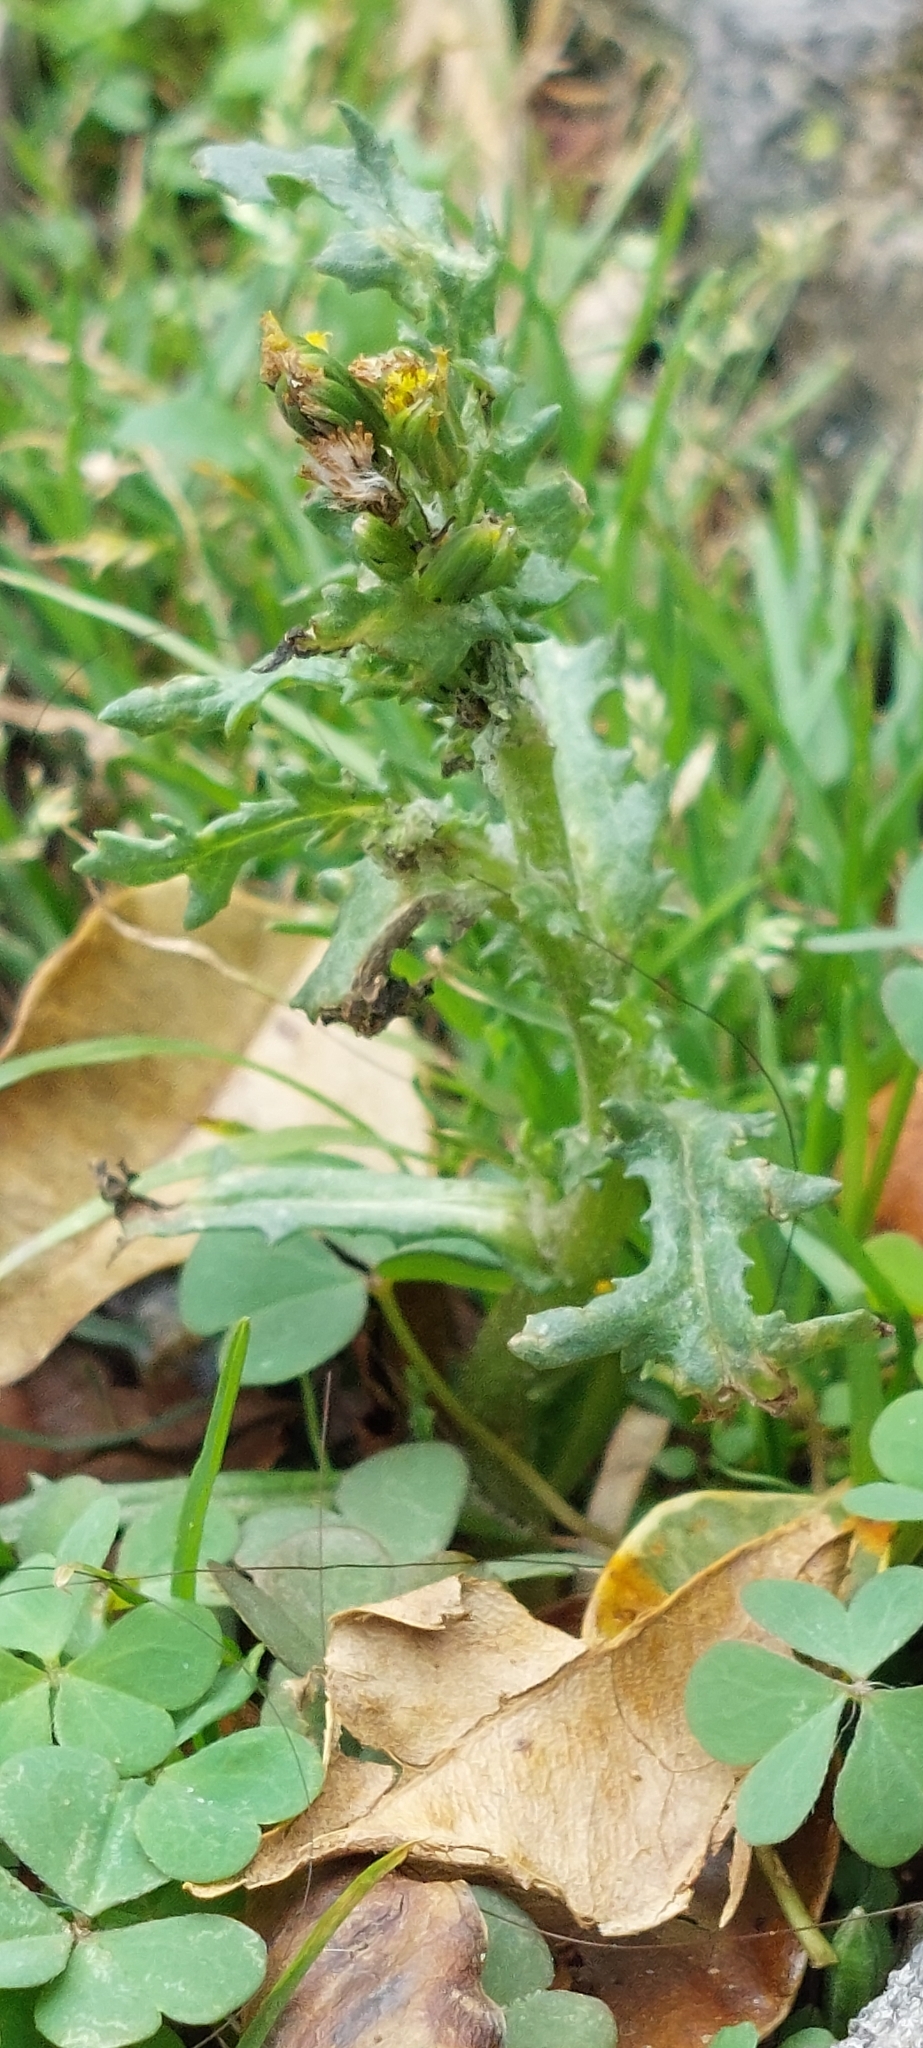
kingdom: Plantae
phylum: Tracheophyta
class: Magnoliopsida
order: Asterales
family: Asteraceae
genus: Senecio
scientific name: Senecio vulgaris
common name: Old-man-in-the-spring
